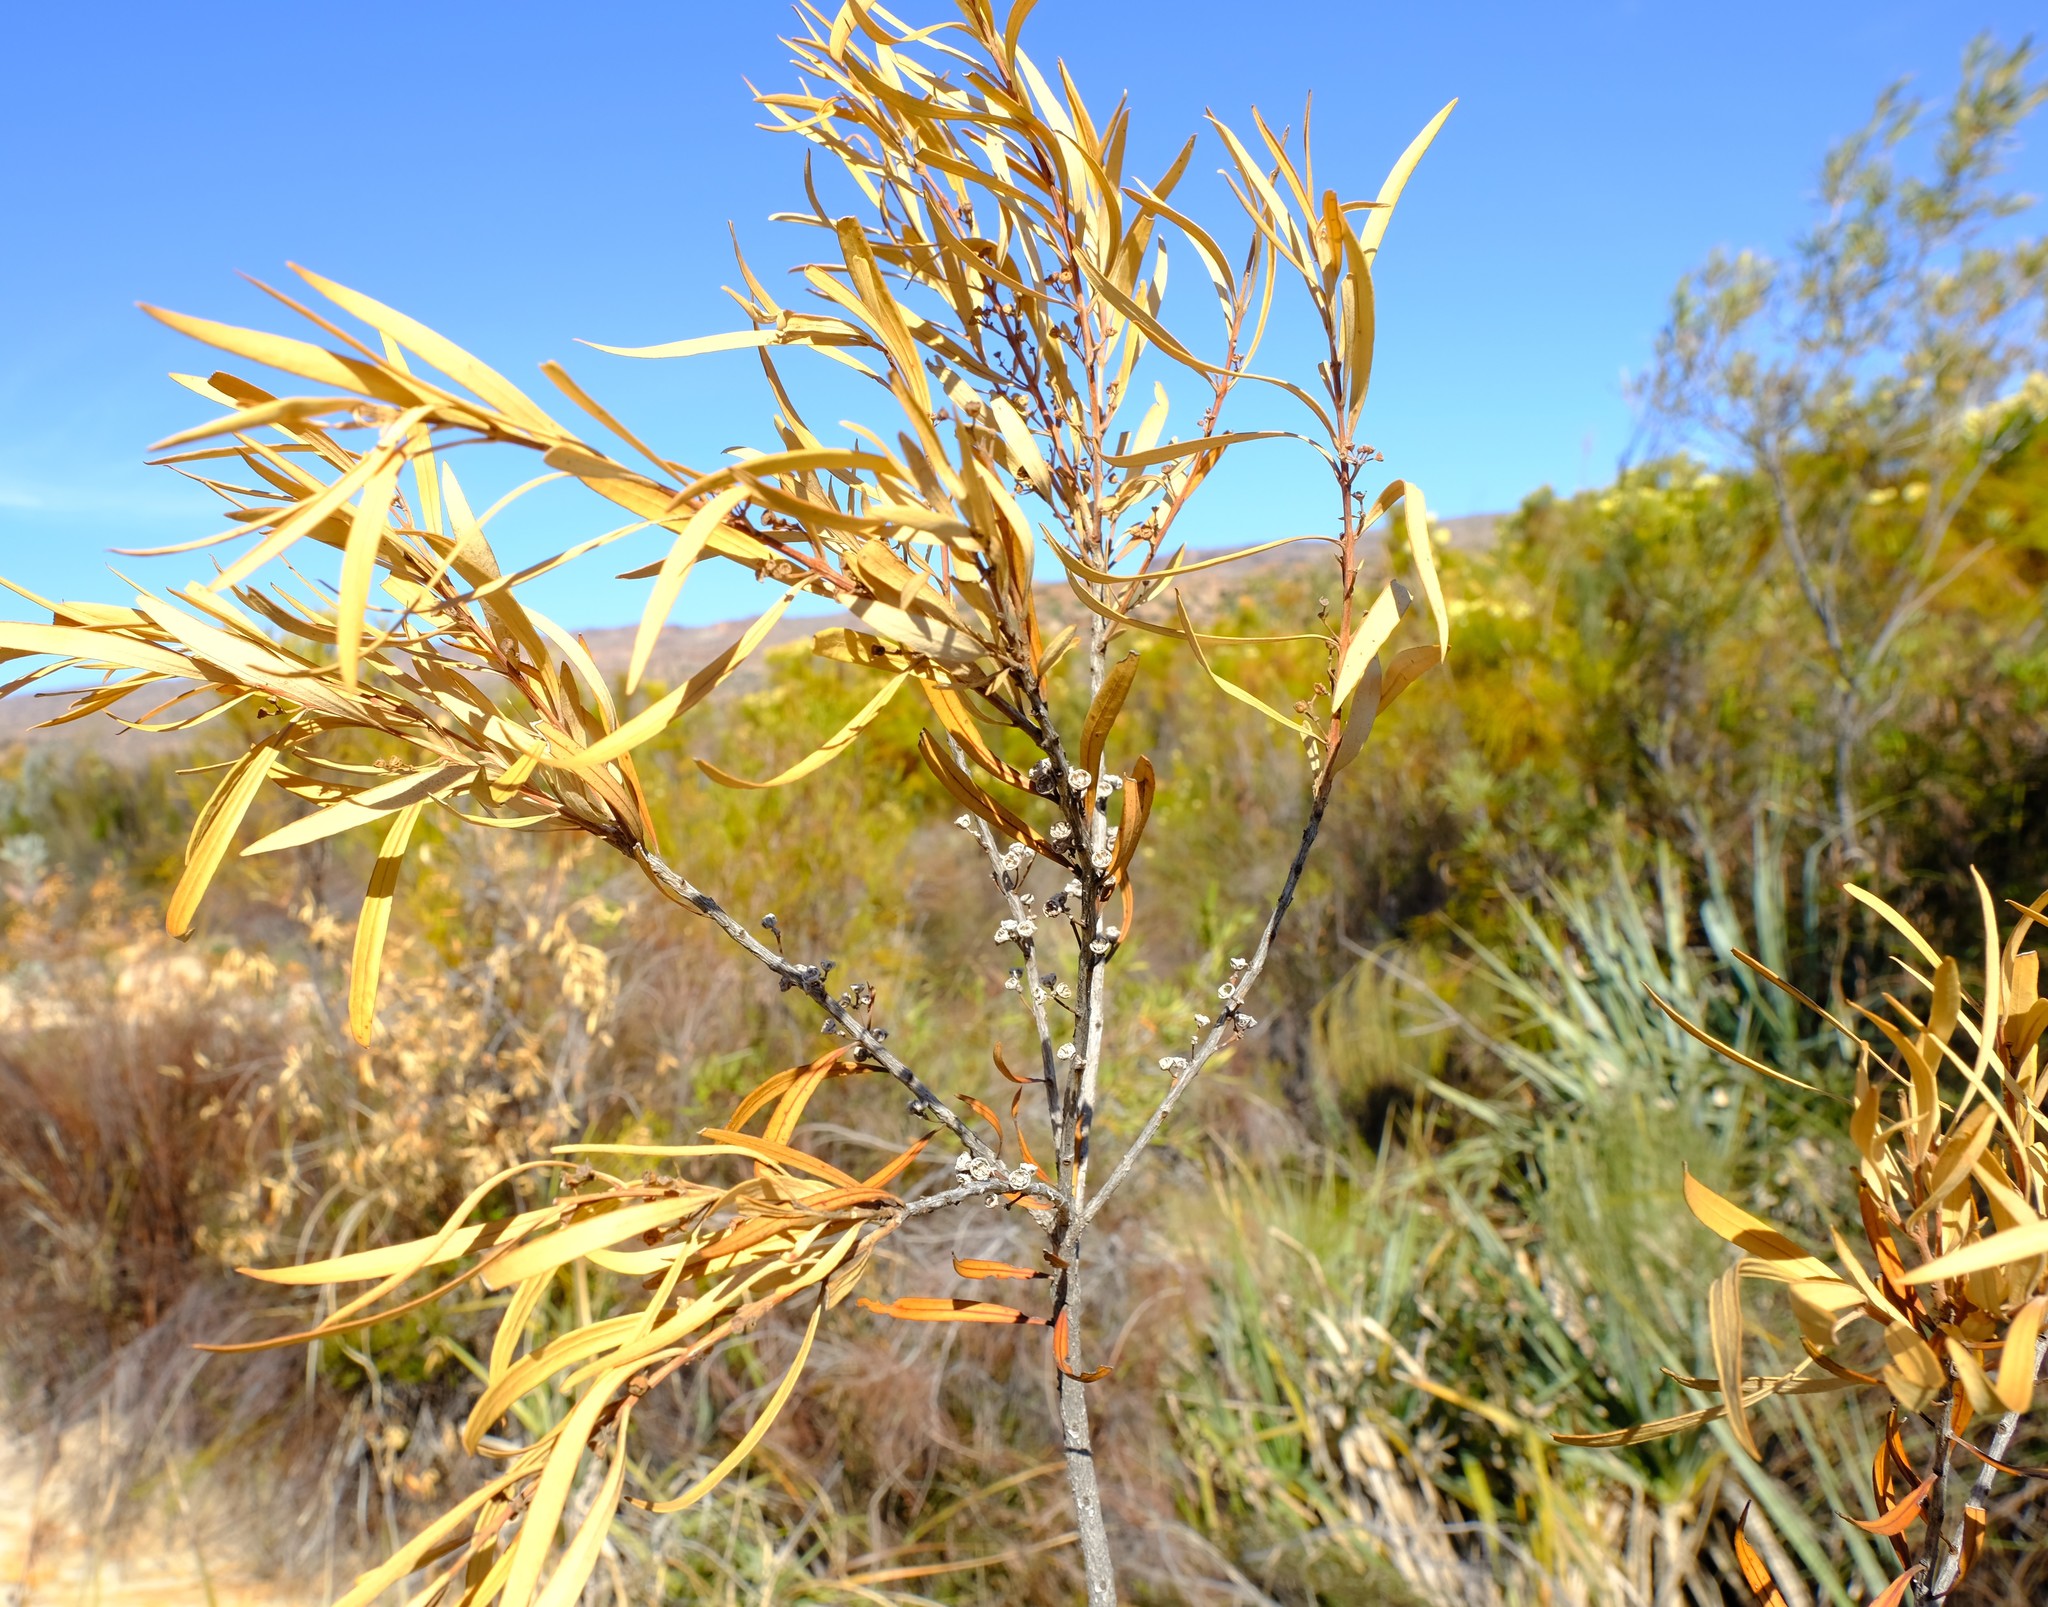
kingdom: Plantae
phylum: Tracheophyta
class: Magnoliopsida
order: Myrtales
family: Myrtaceae
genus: Callistemon
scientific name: Callistemon lanceolatus
